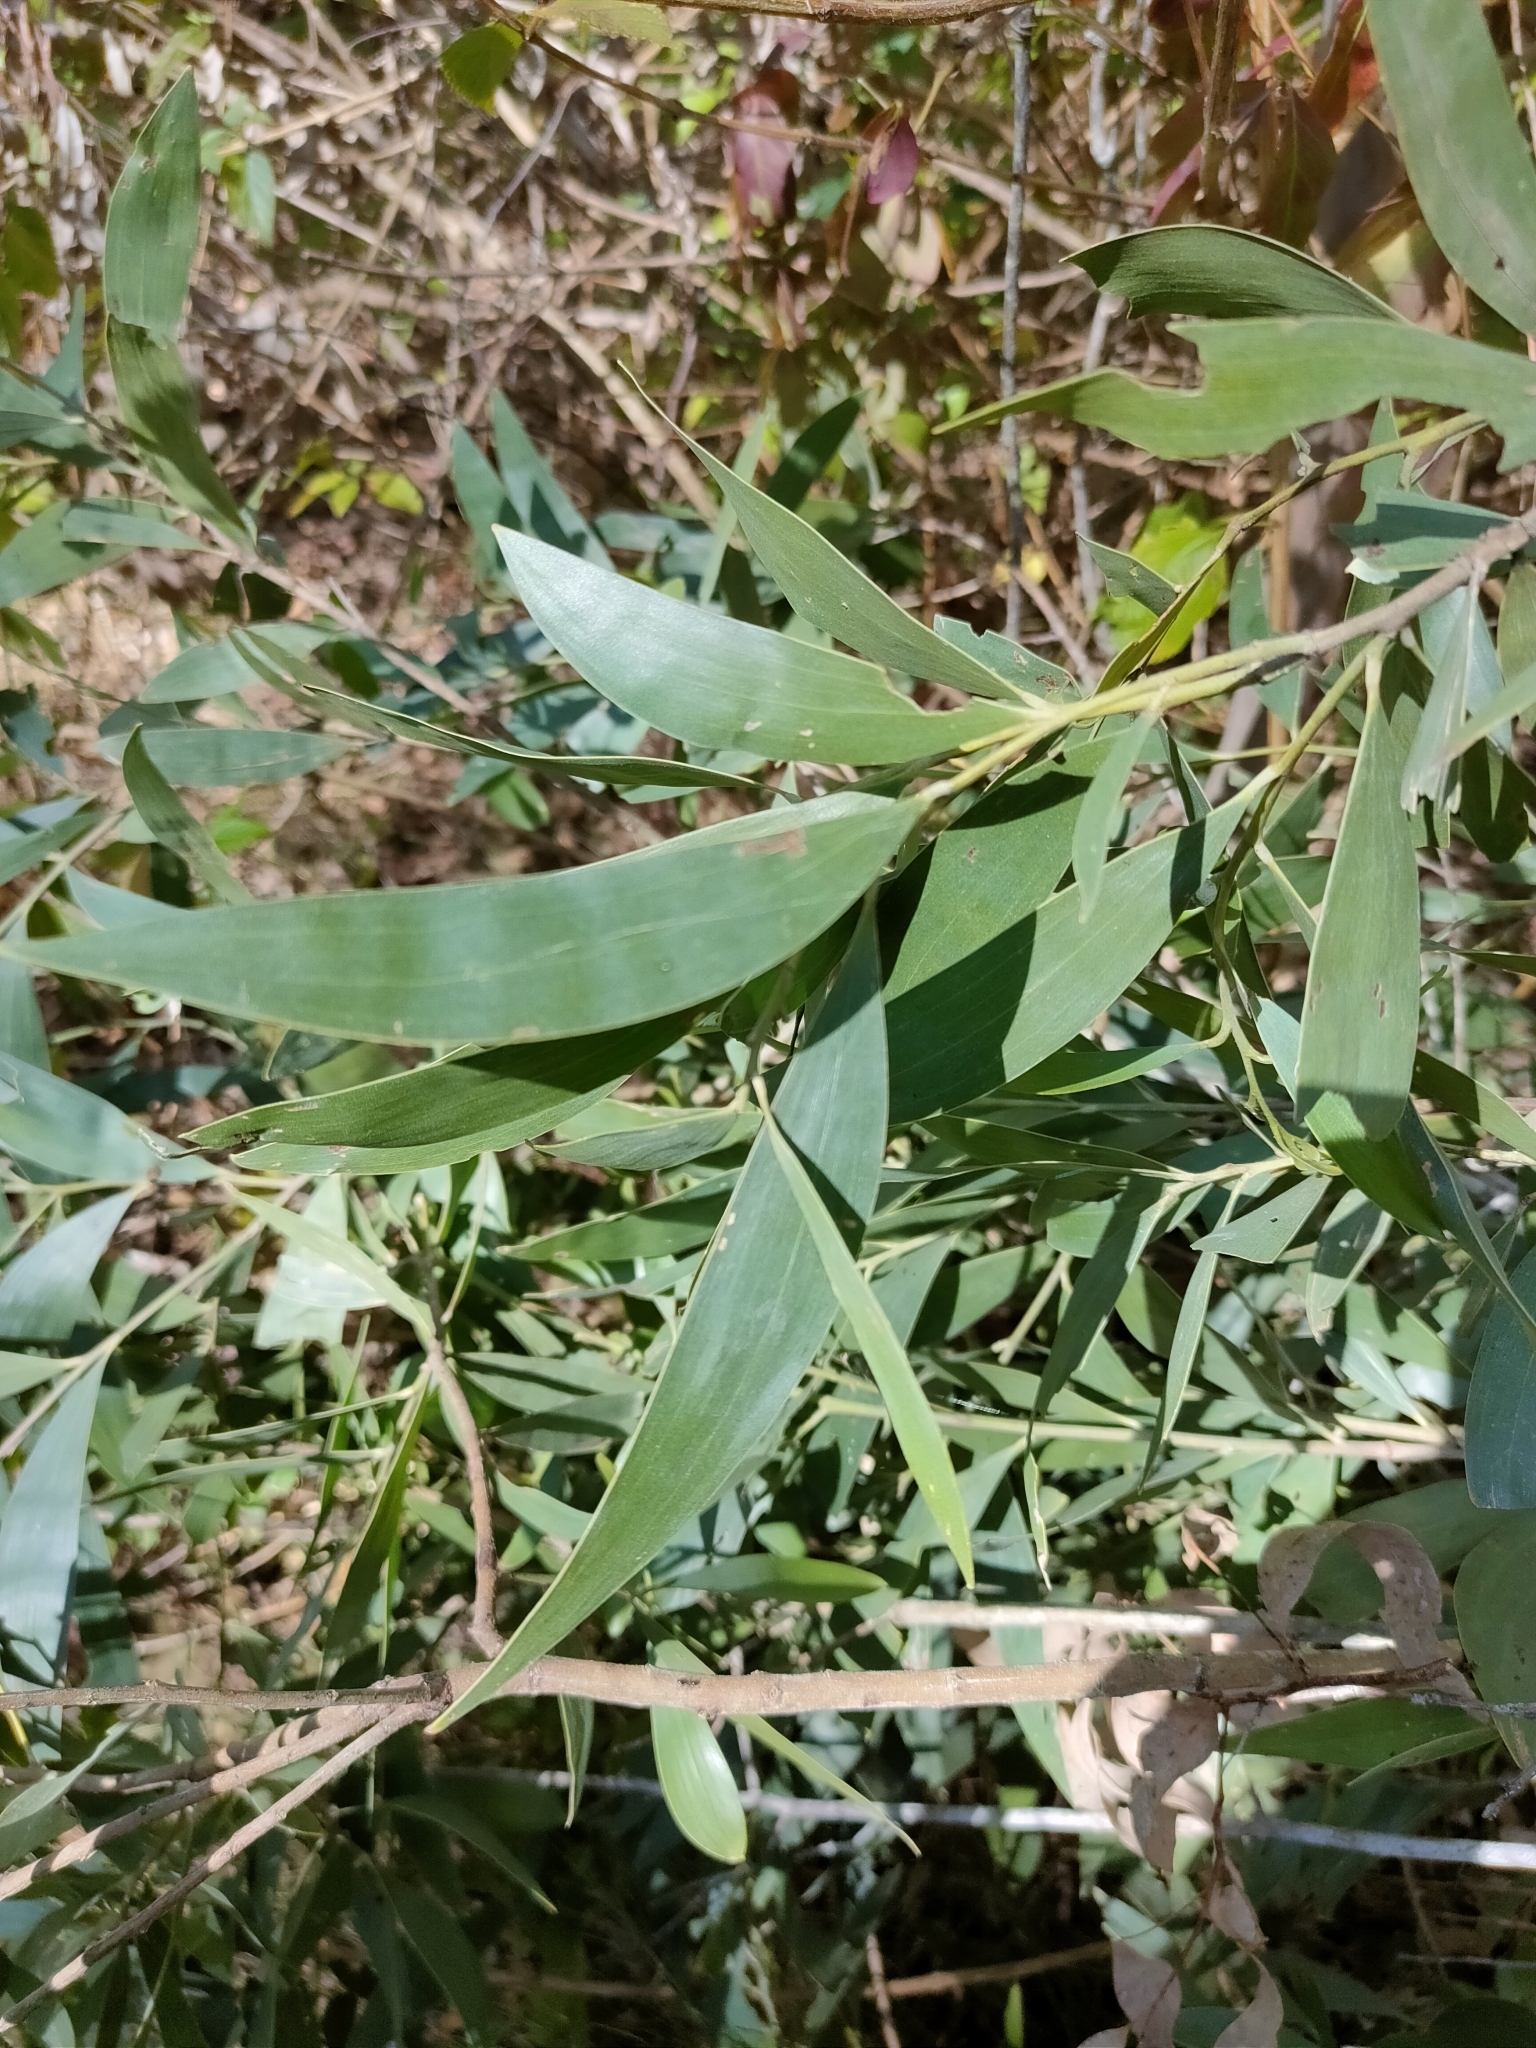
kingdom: Plantae
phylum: Tracheophyta
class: Magnoliopsida
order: Fabales
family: Fabaceae
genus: Acacia
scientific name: Acacia disparrima
